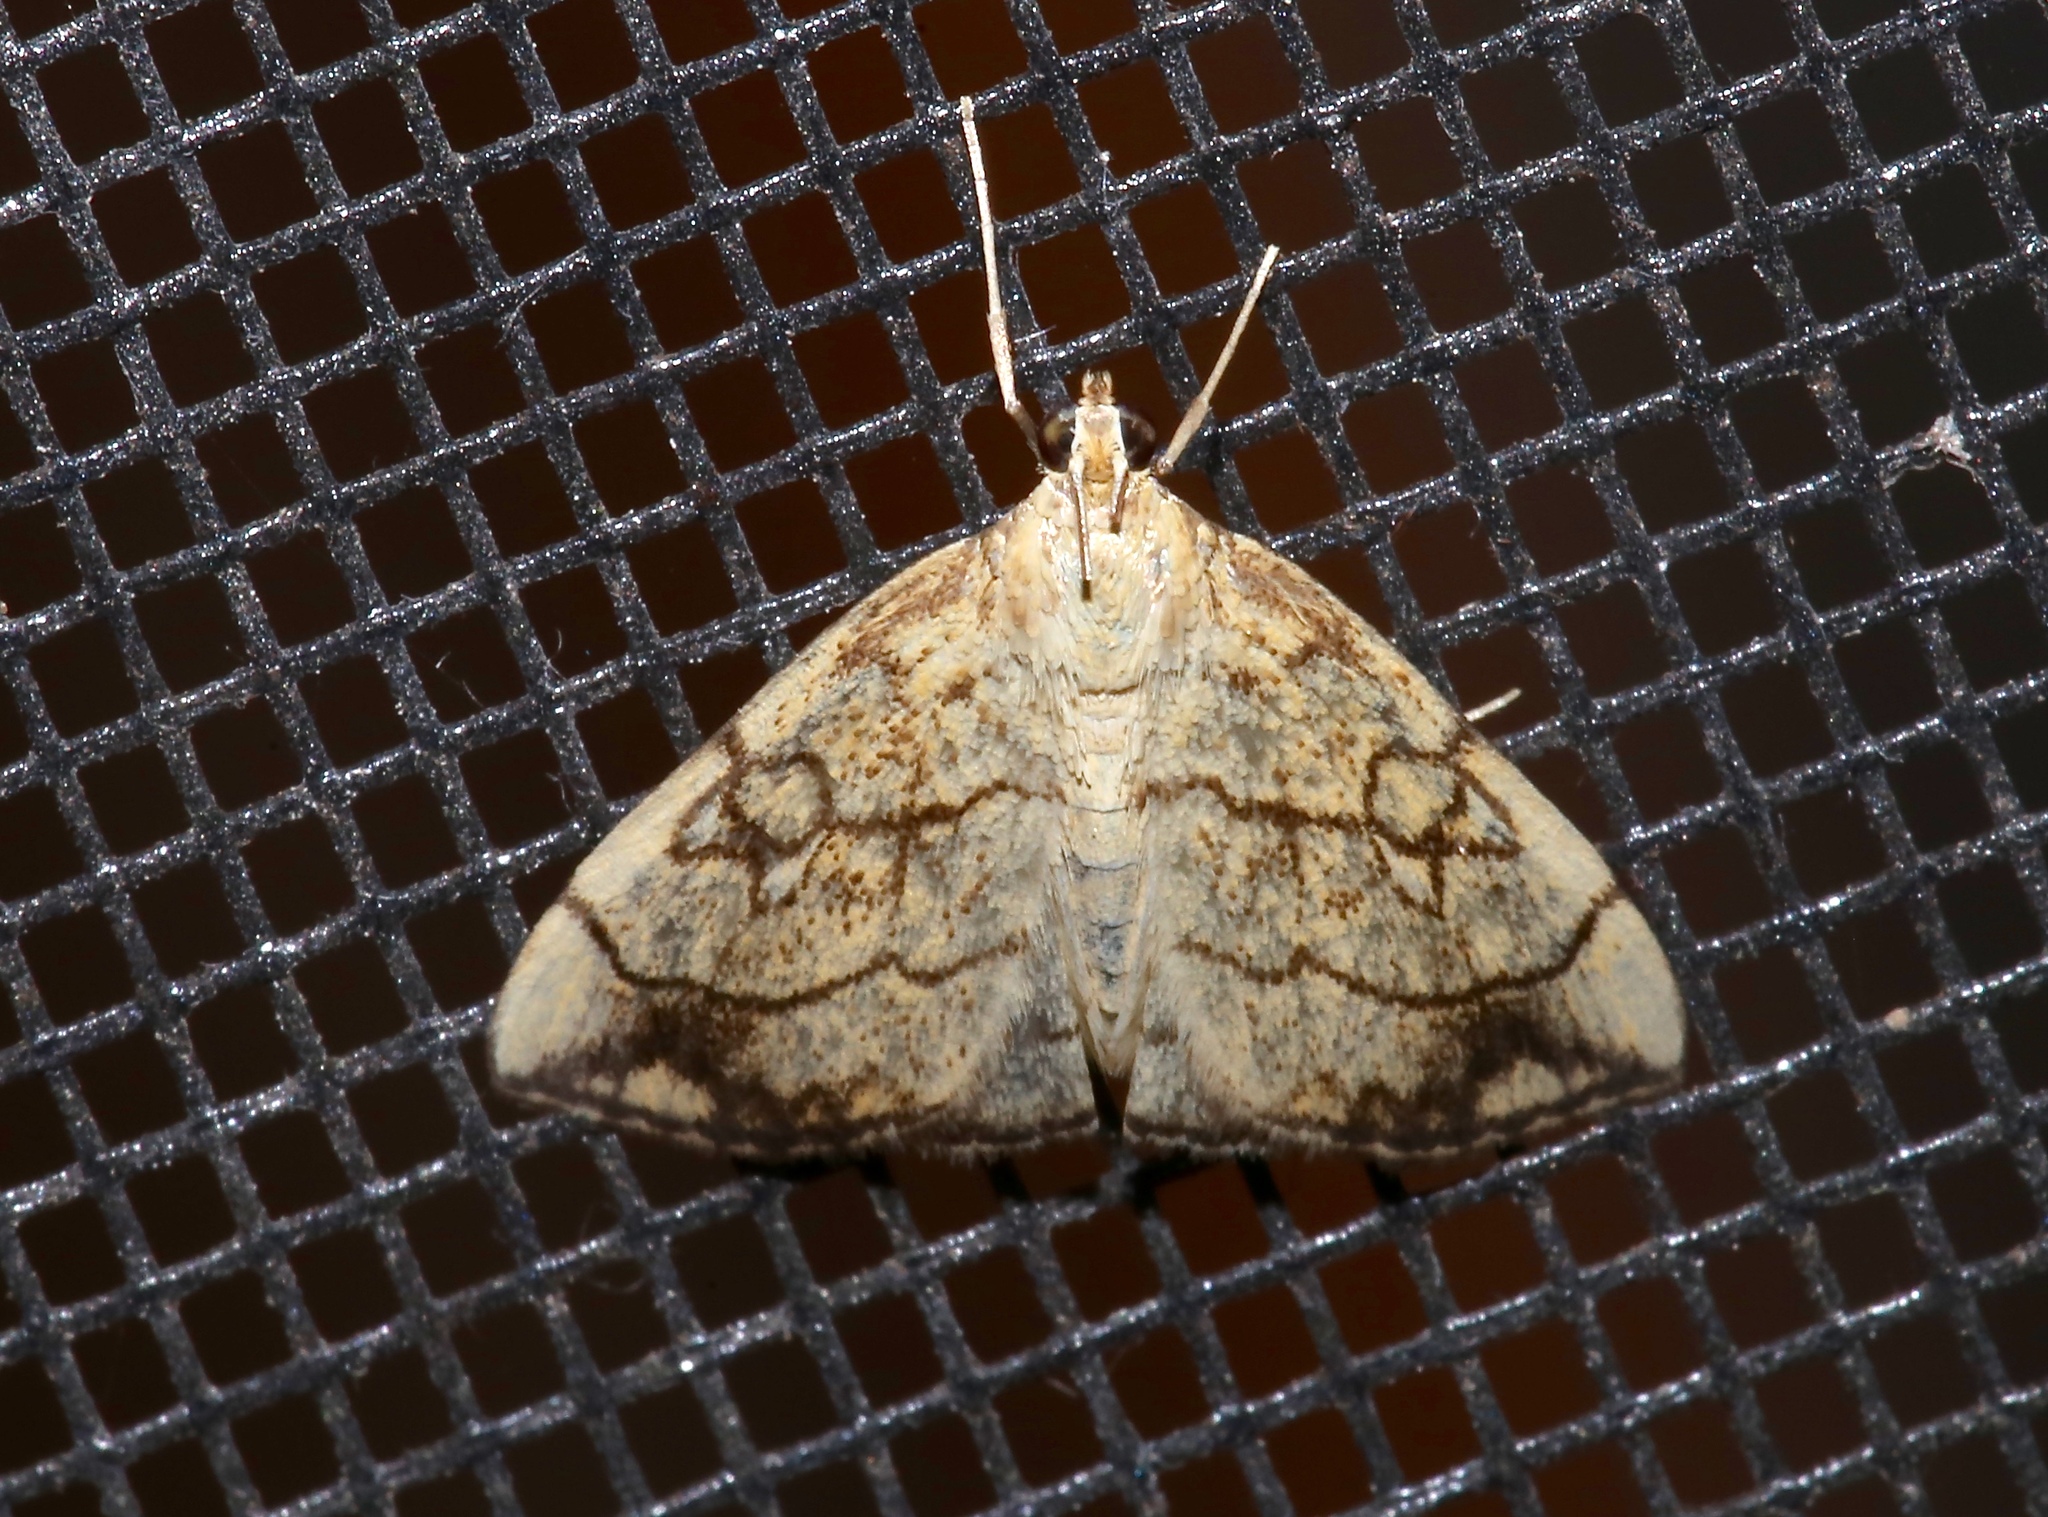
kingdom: Animalia
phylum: Arthropoda
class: Insecta
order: Lepidoptera
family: Crambidae
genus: Evergestis
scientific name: Evergestis pallidata
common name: Chequered pearl
